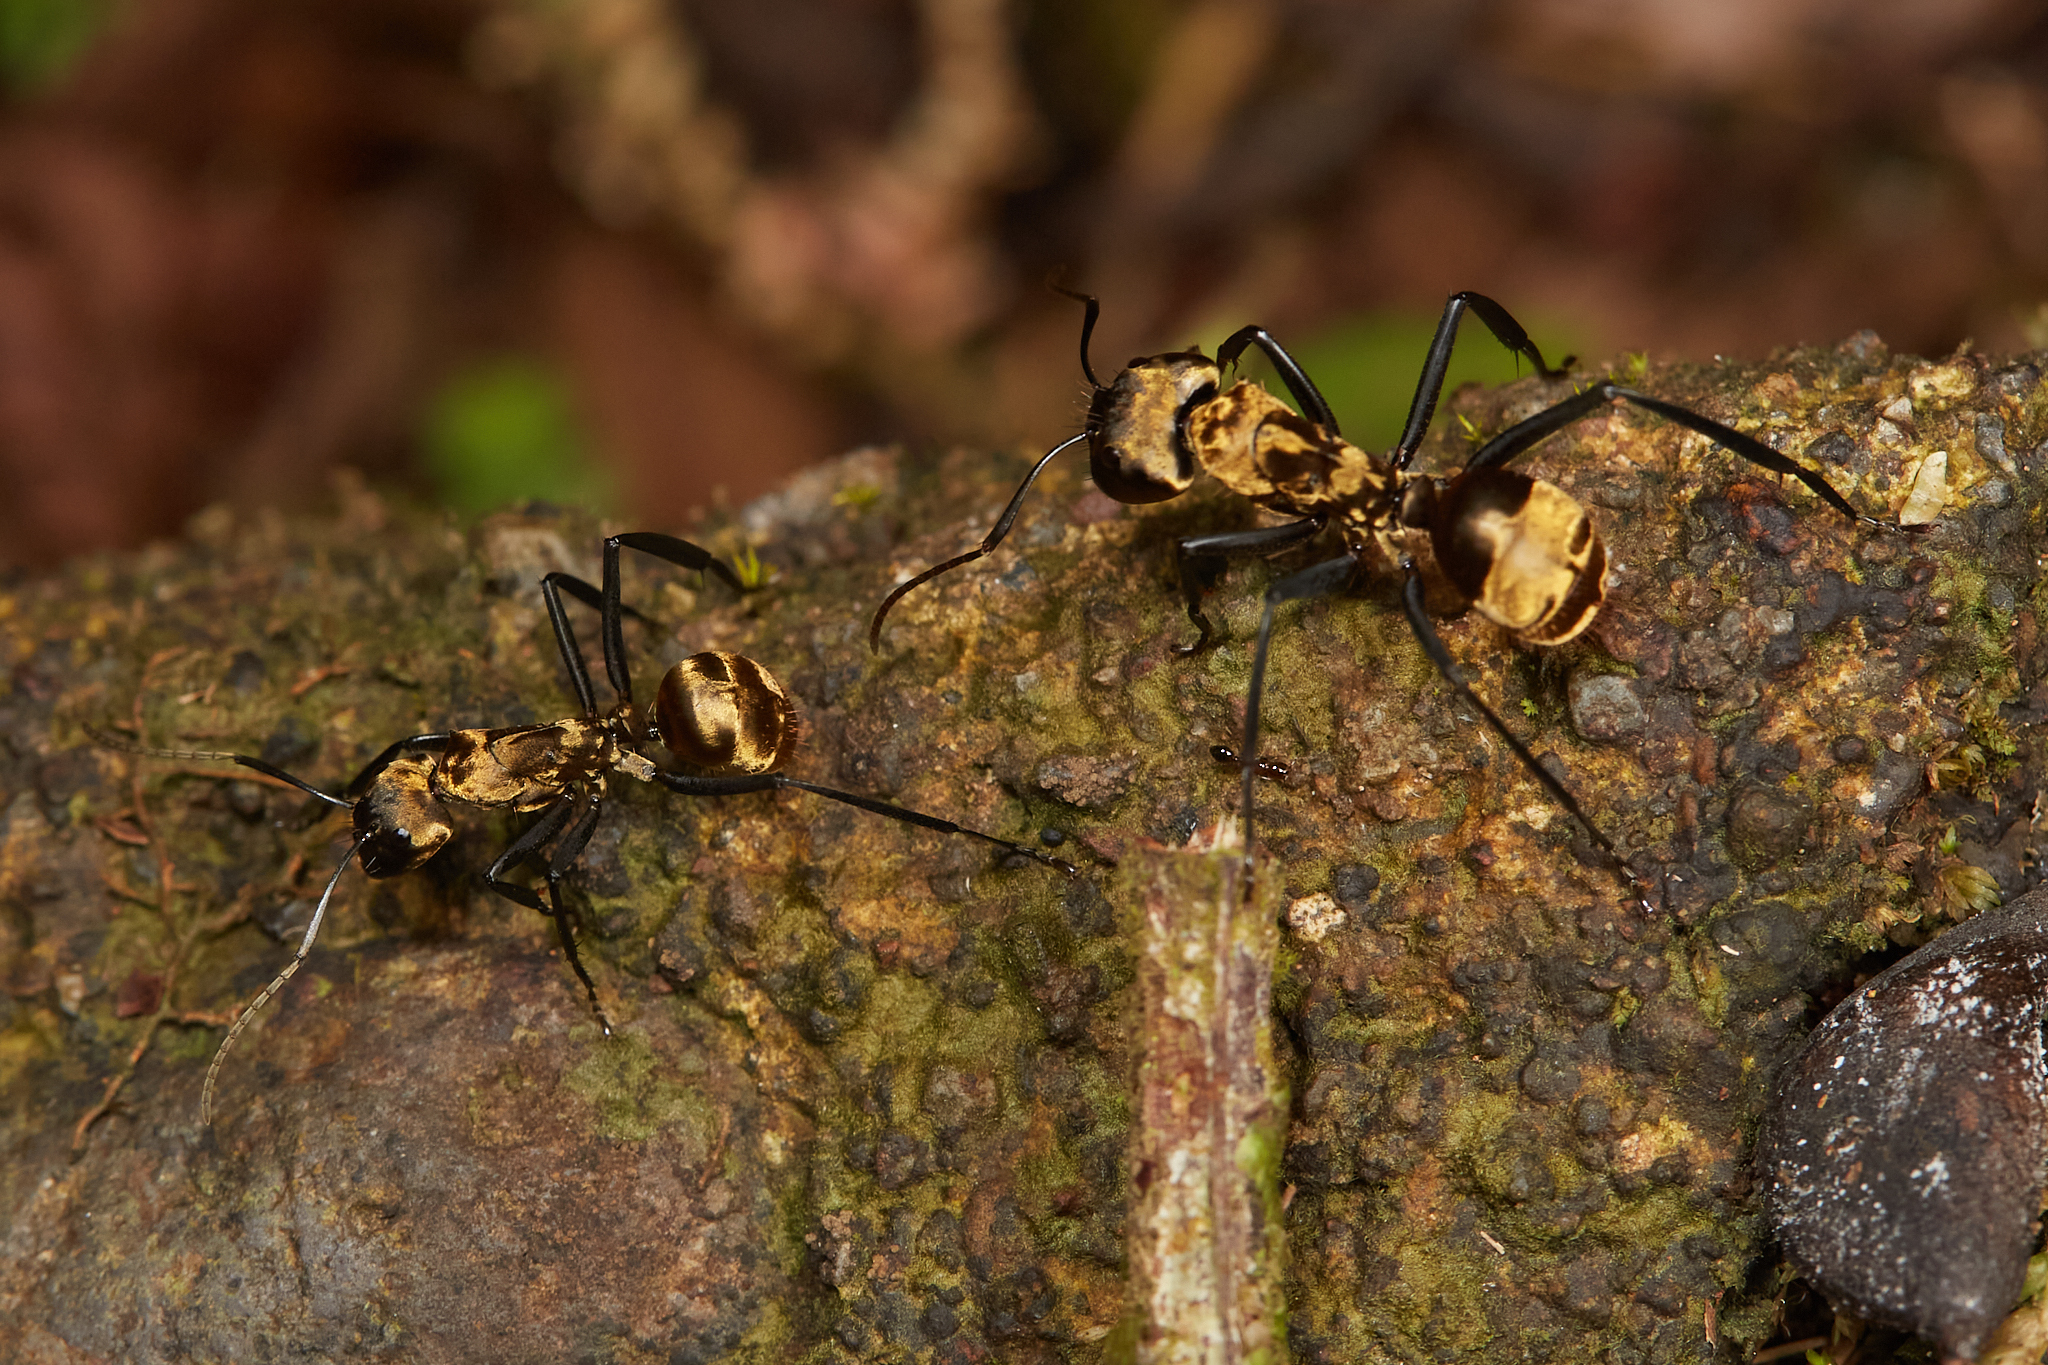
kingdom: Animalia
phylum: Arthropoda
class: Insecta
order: Hymenoptera
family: Formicidae
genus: Camponotus
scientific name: Camponotus sericeiventris
